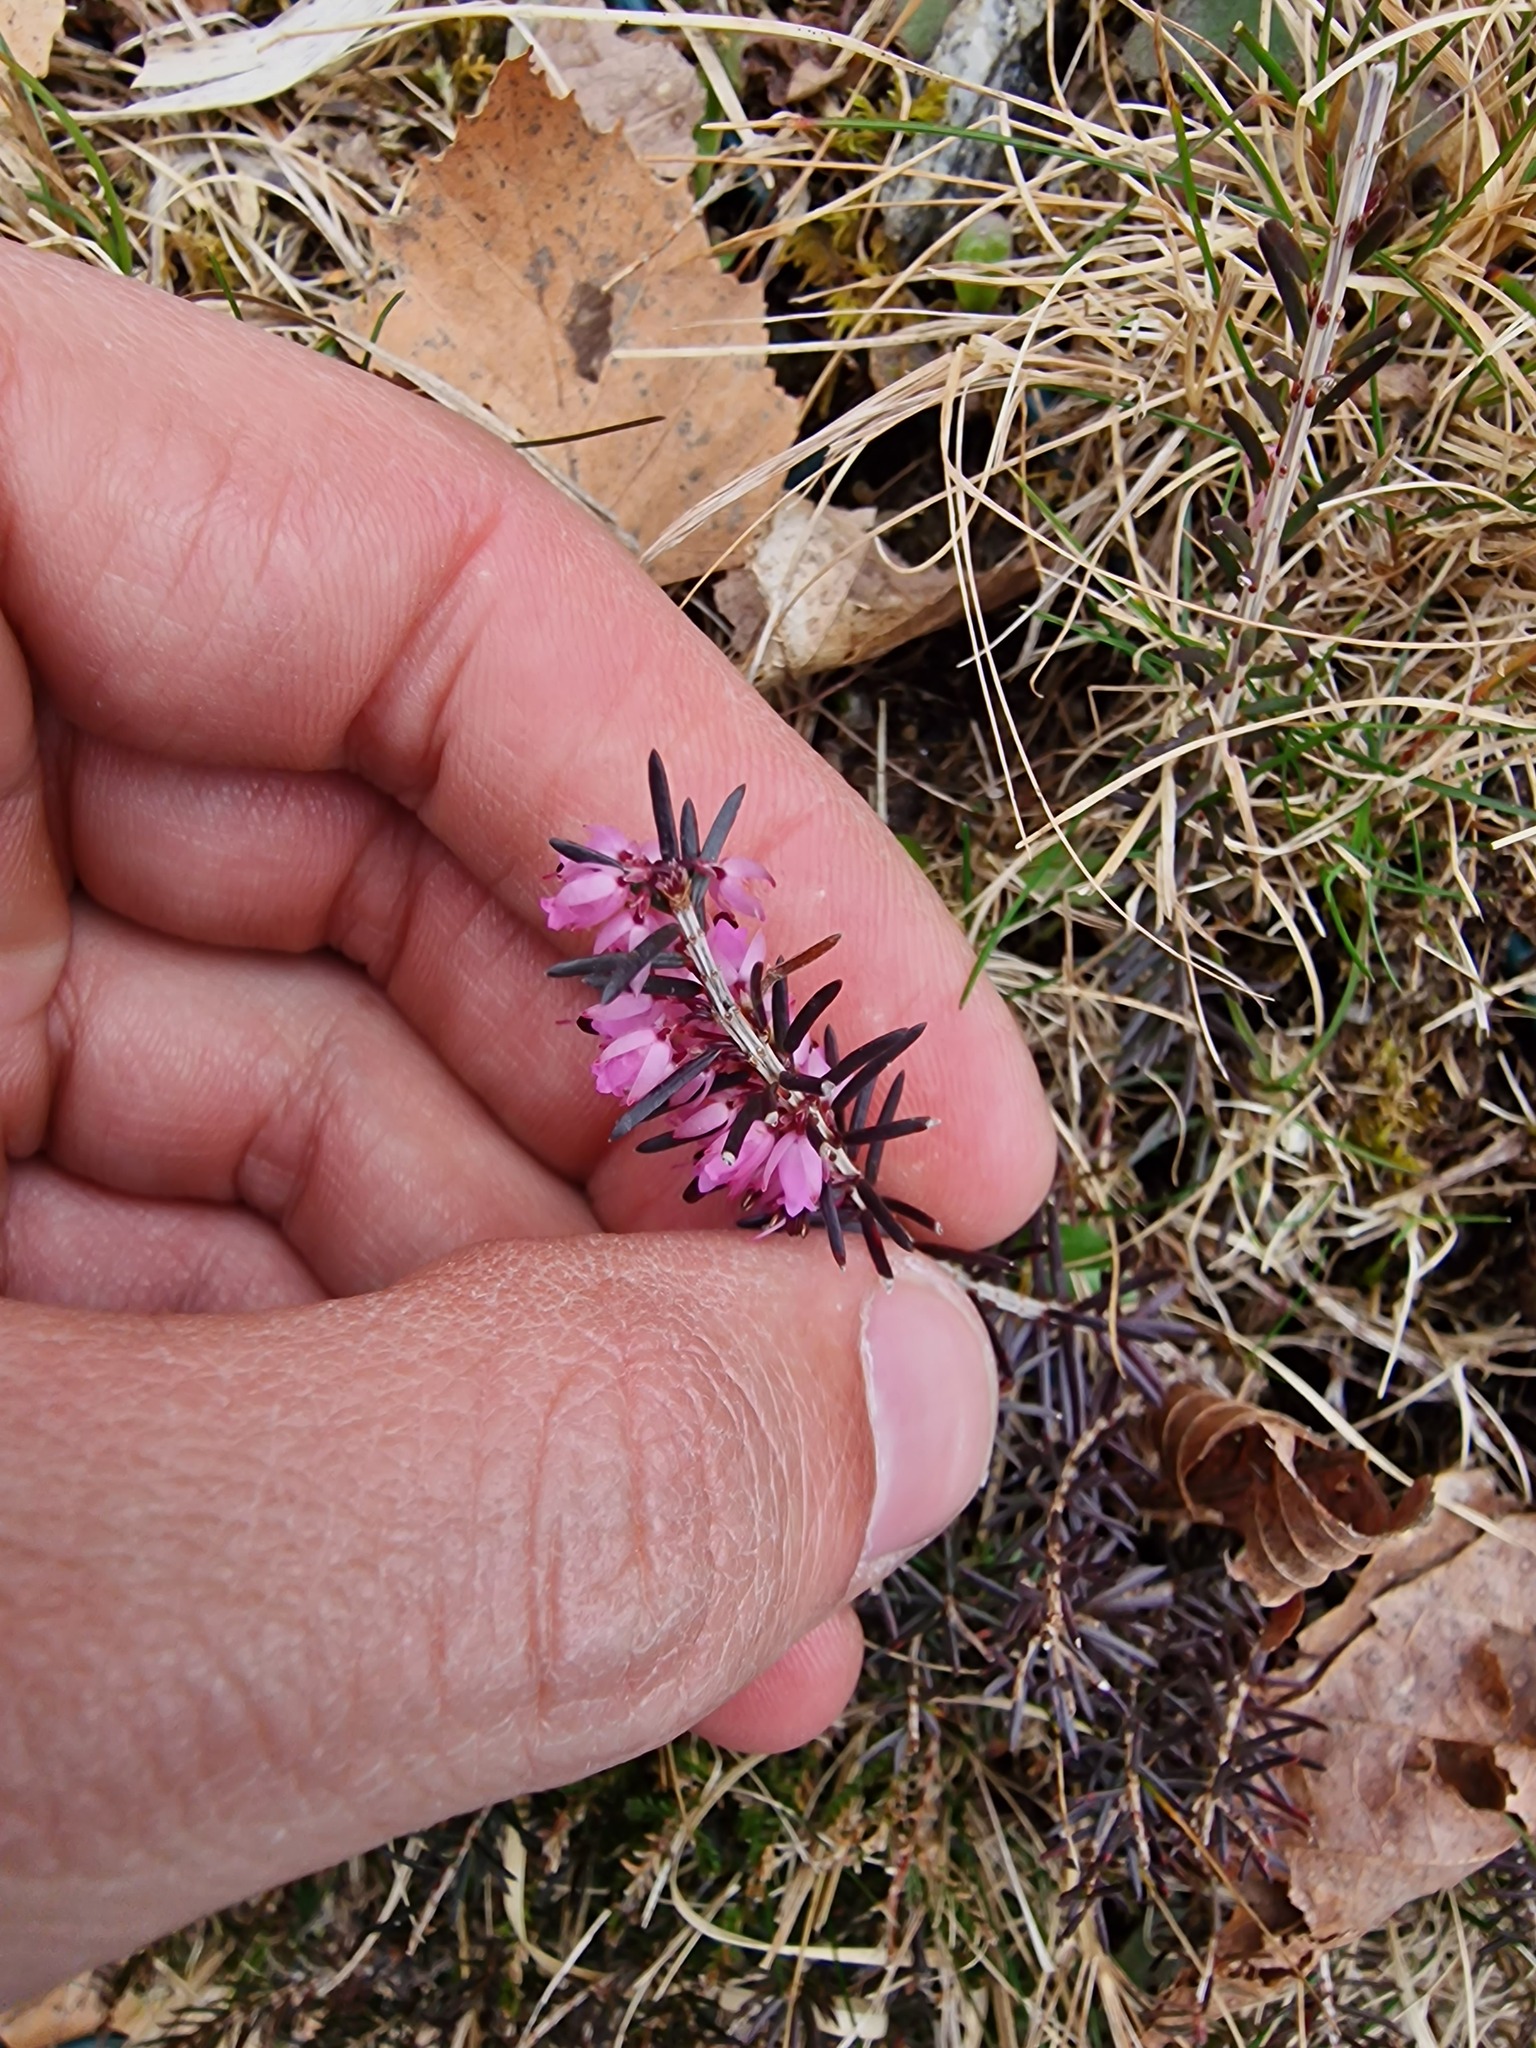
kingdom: Plantae
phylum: Tracheophyta
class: Magnoliopsida
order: Ericales
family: Ericaceae
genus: Erica
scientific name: Erica carnea
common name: Winter heath
